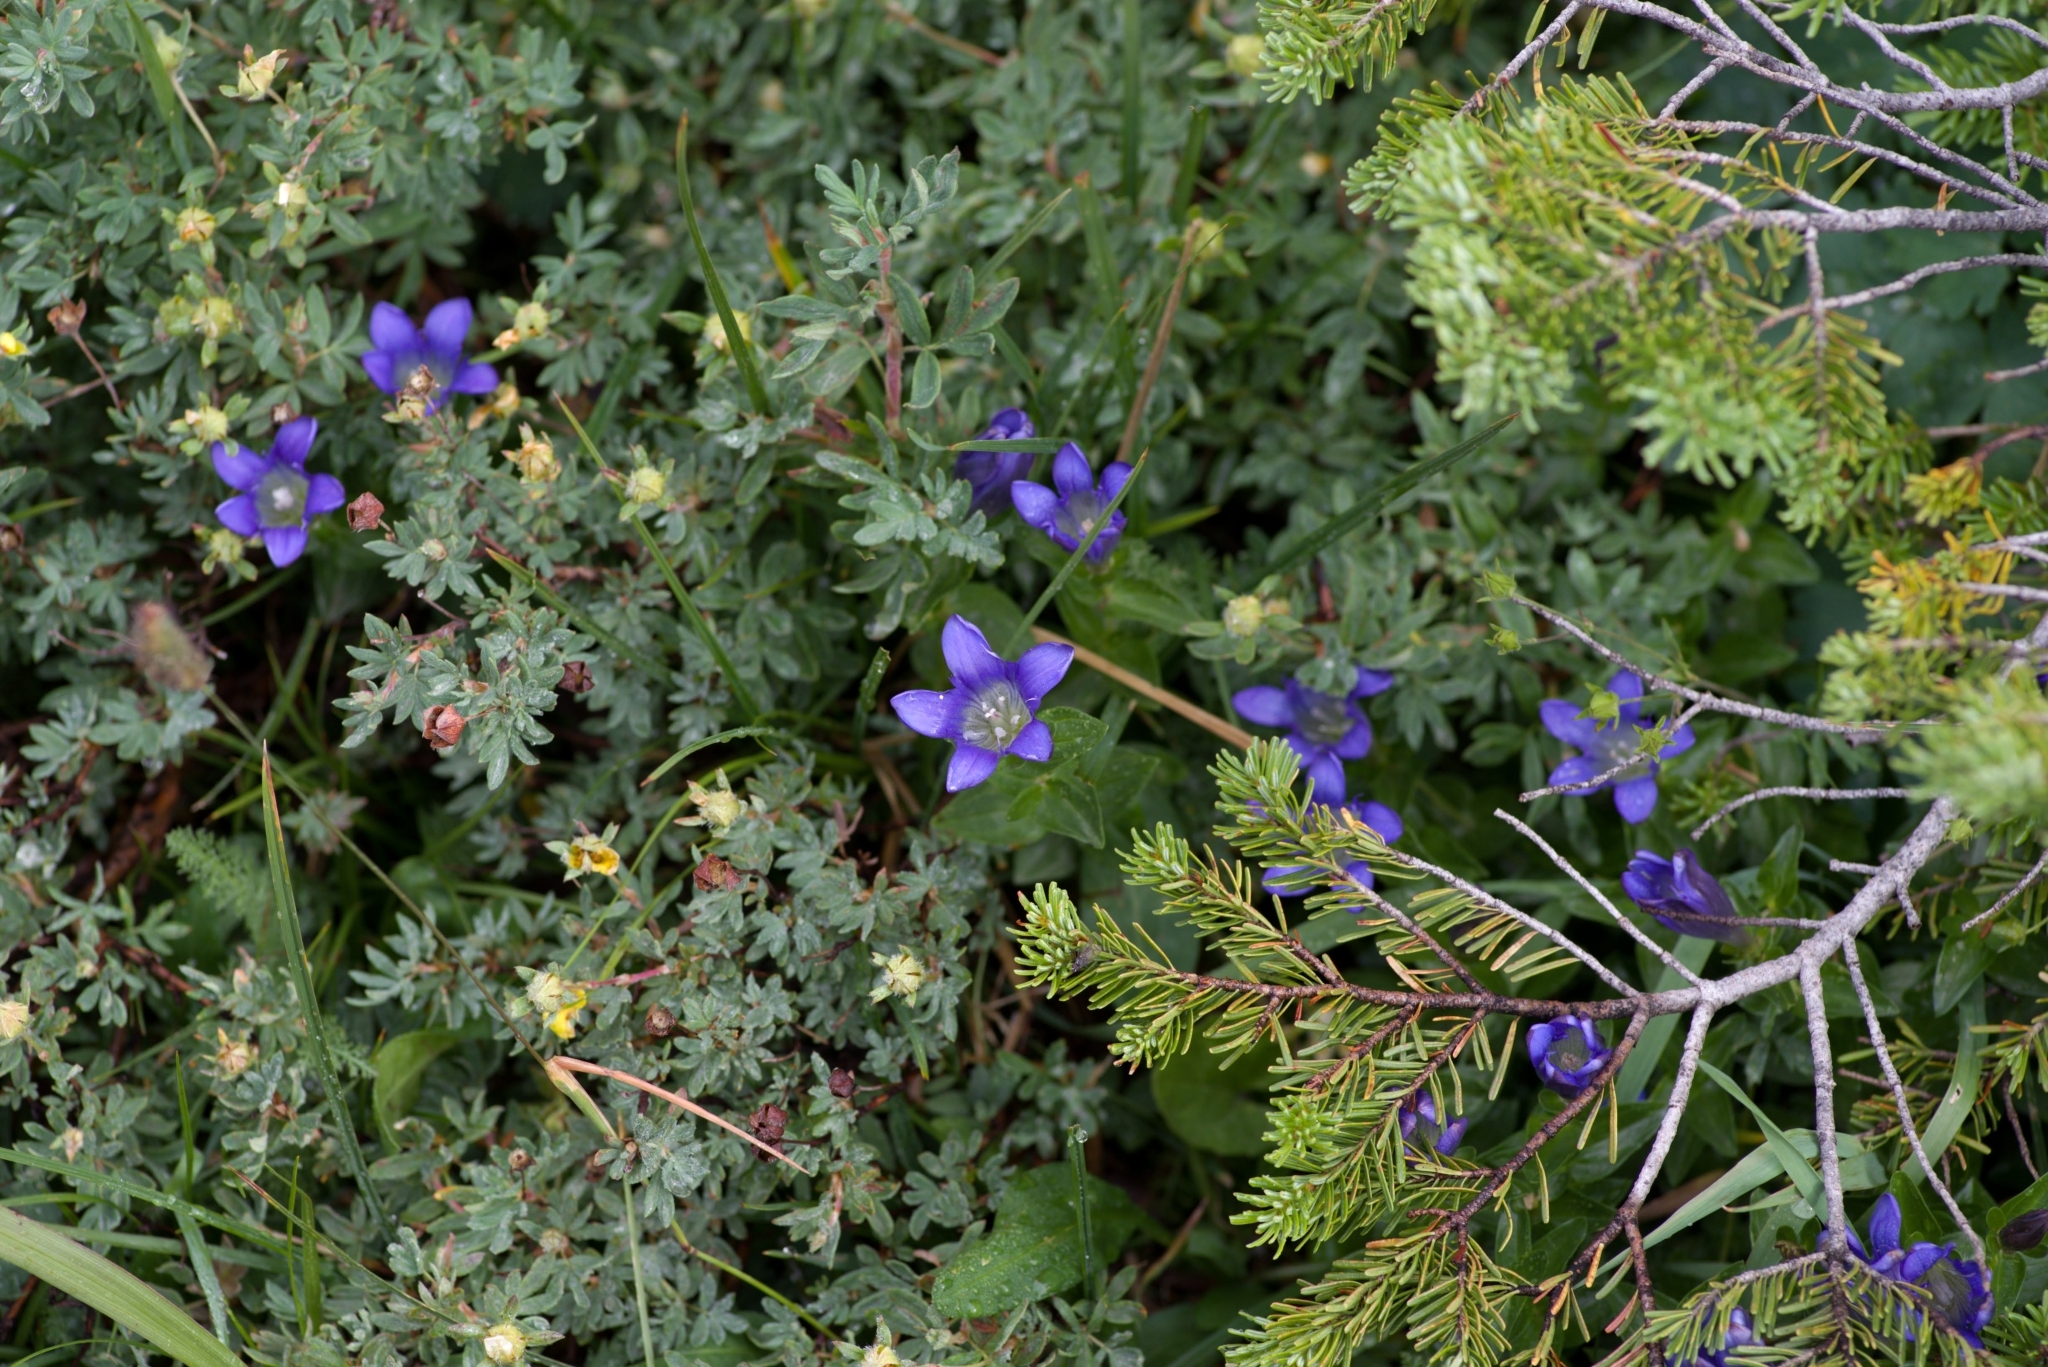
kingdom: Plantae
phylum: Tracheophyta
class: Magnoliopsida
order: Gentianales
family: Gentianaceae
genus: Gentiana
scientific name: Gentiana calycosa
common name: Rainier pleated gentian
